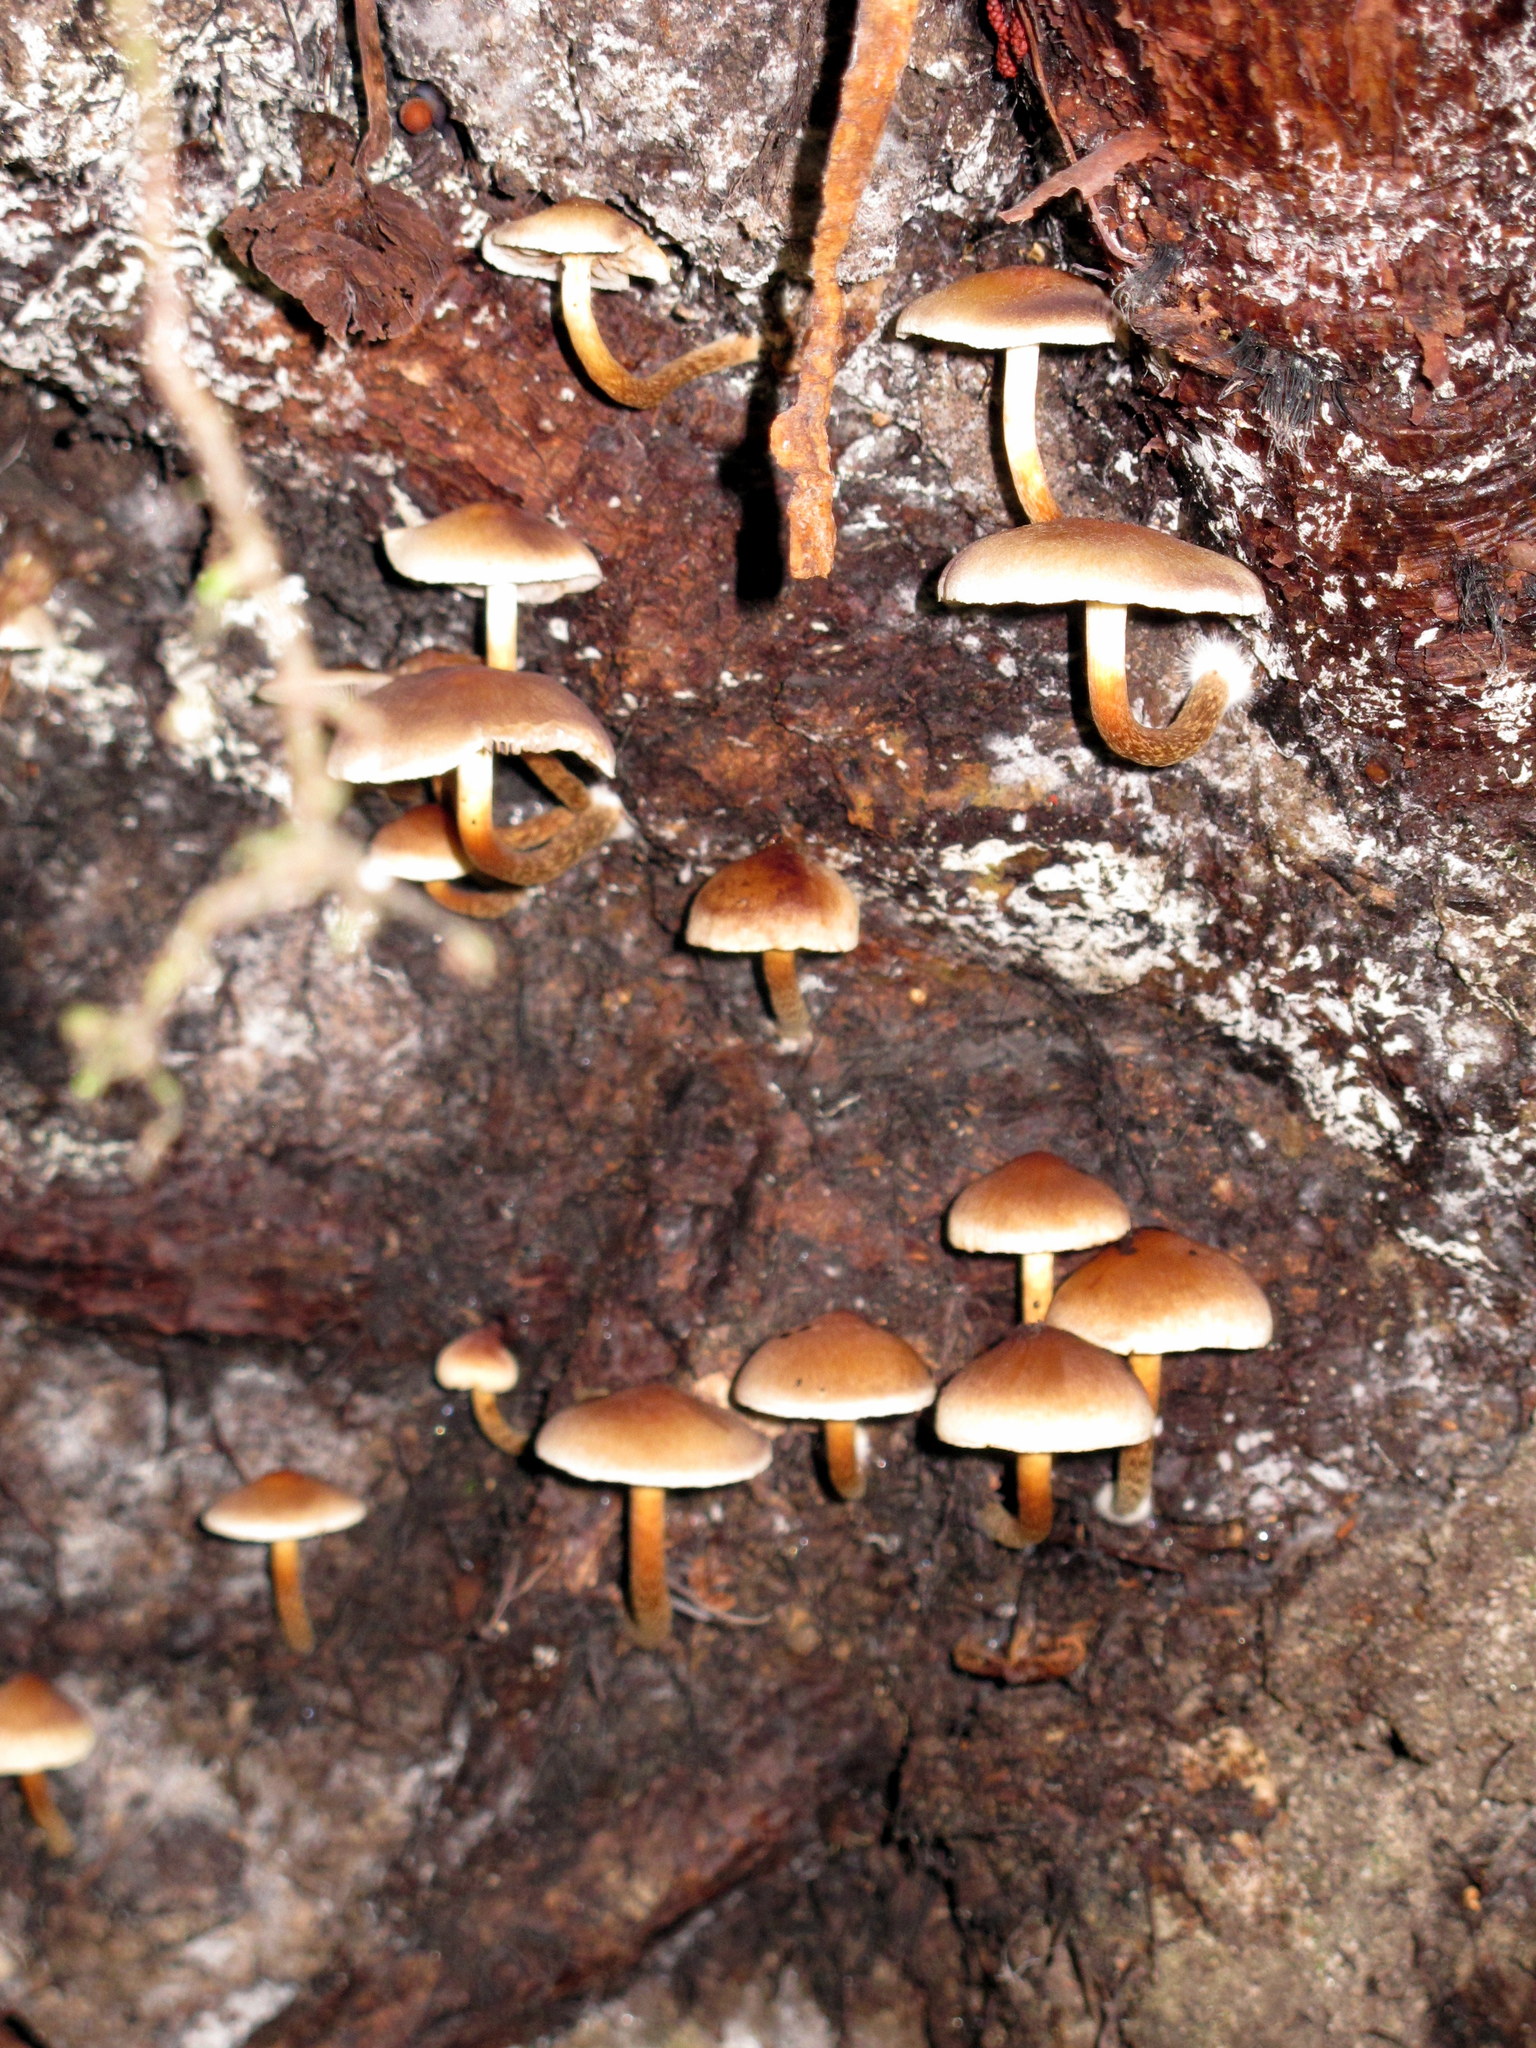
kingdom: Fungi
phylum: Basidiomycota
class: Agaricomycetes
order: Agaricales
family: Strophariaceae
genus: Hypholoma
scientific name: Hypholoma capnoides
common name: Conifer tuft
